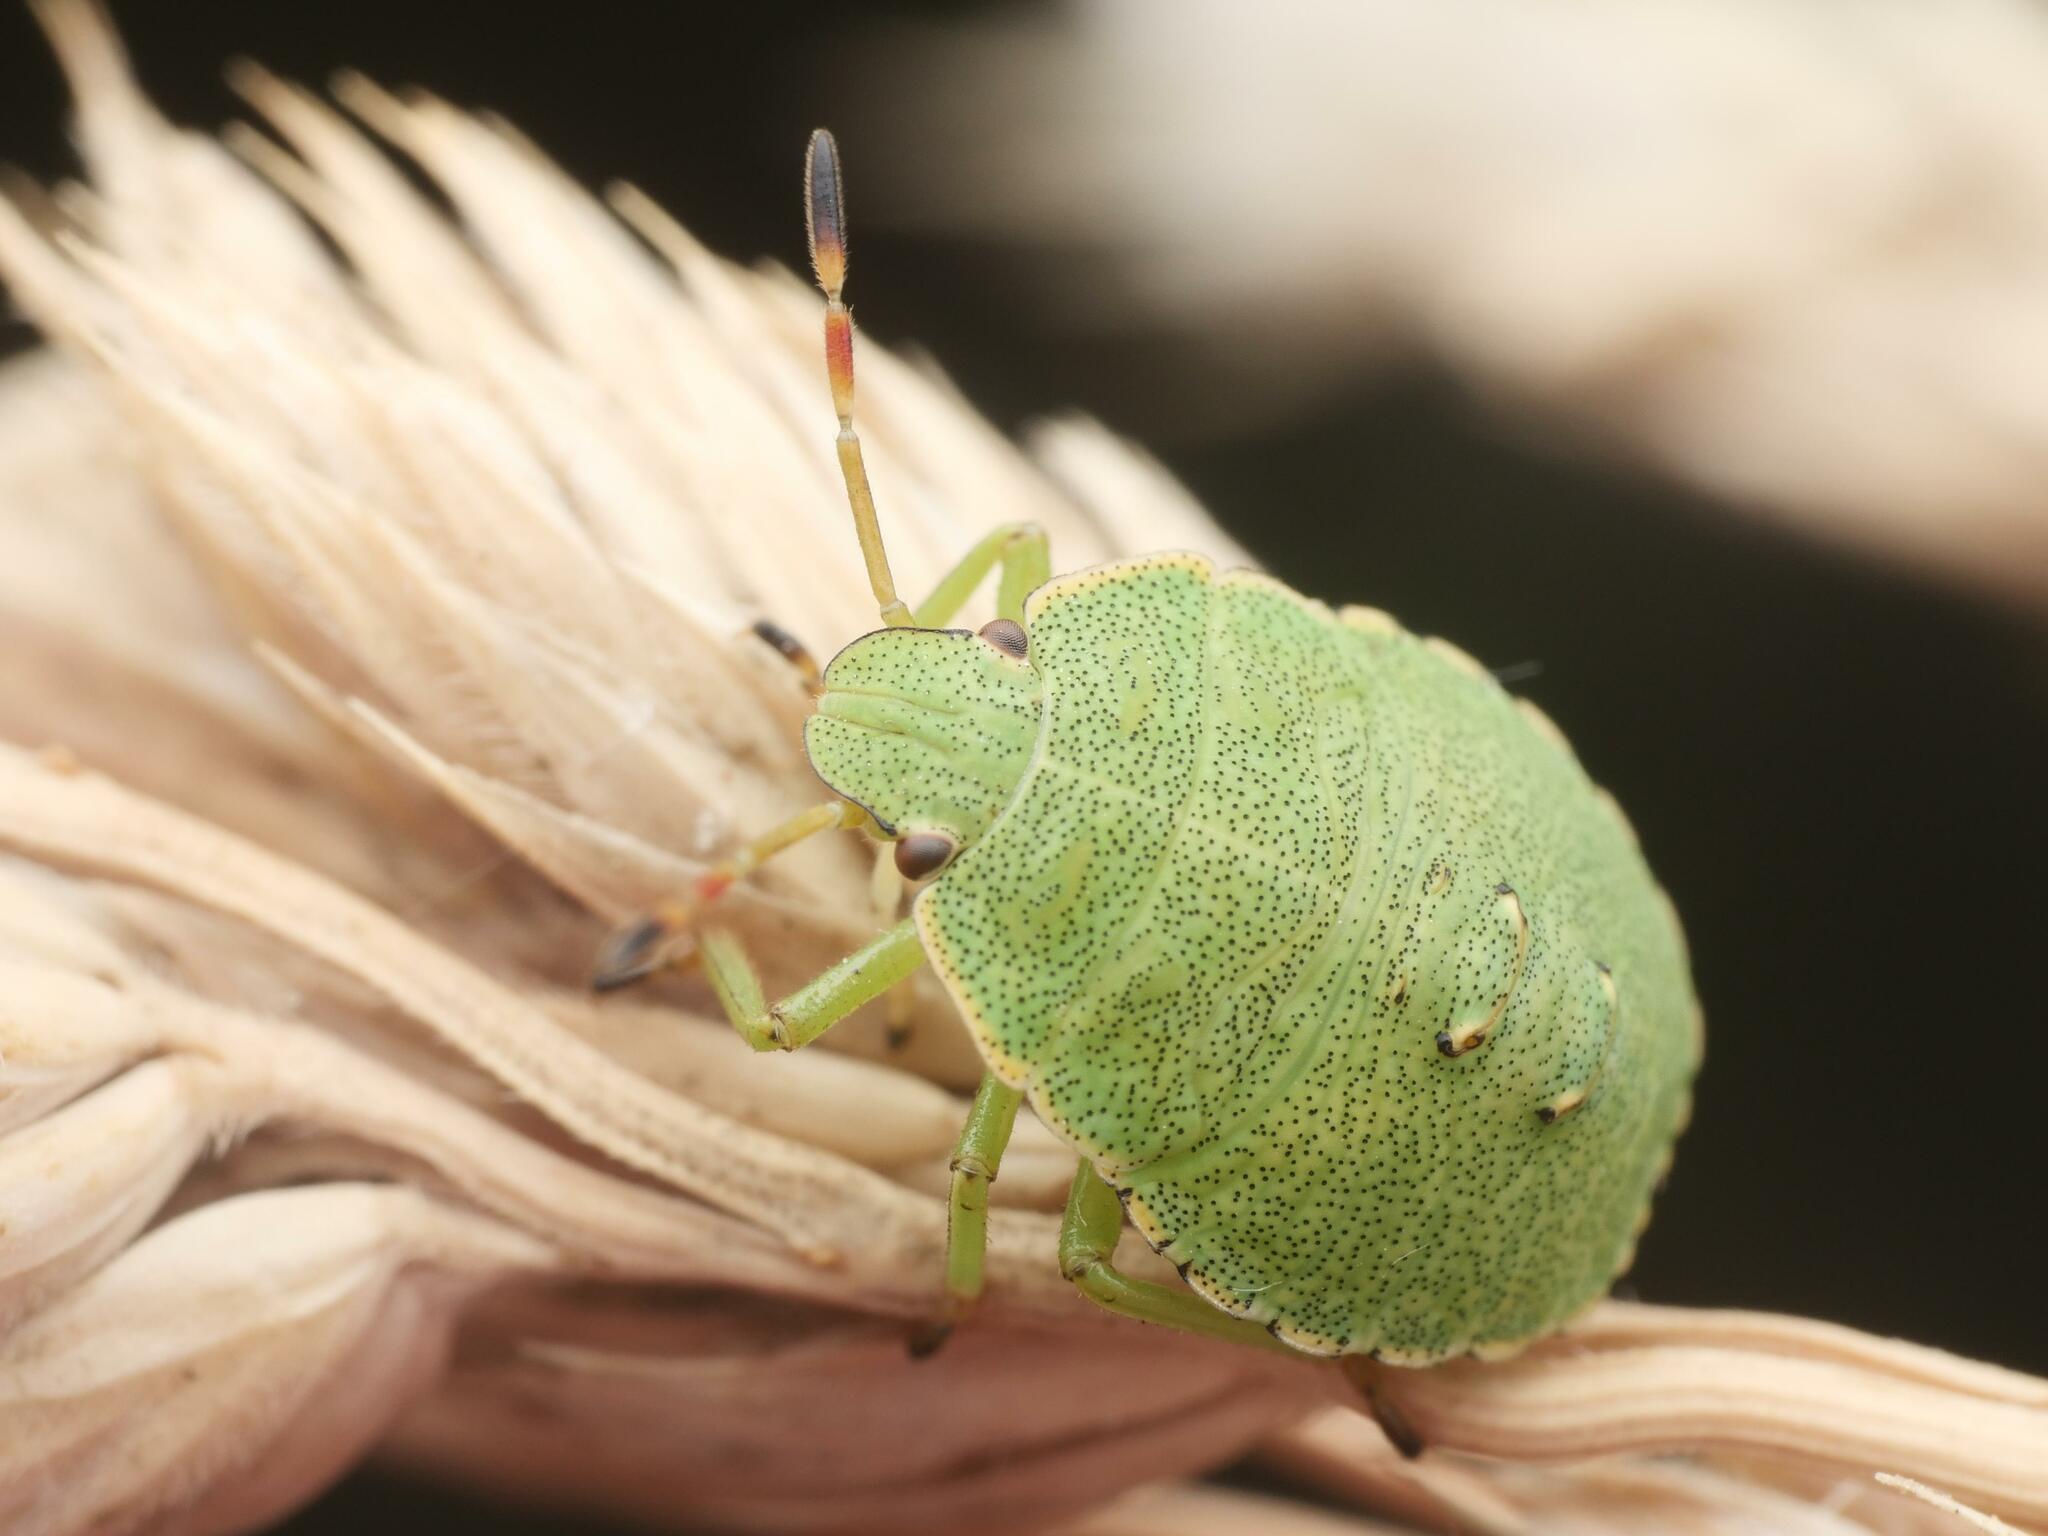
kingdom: Animalia
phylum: Arthropoda
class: Insecta
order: Hemiptera
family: Pentatomidae
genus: Palomena
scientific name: Palomena prasina
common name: Green shieldbug
